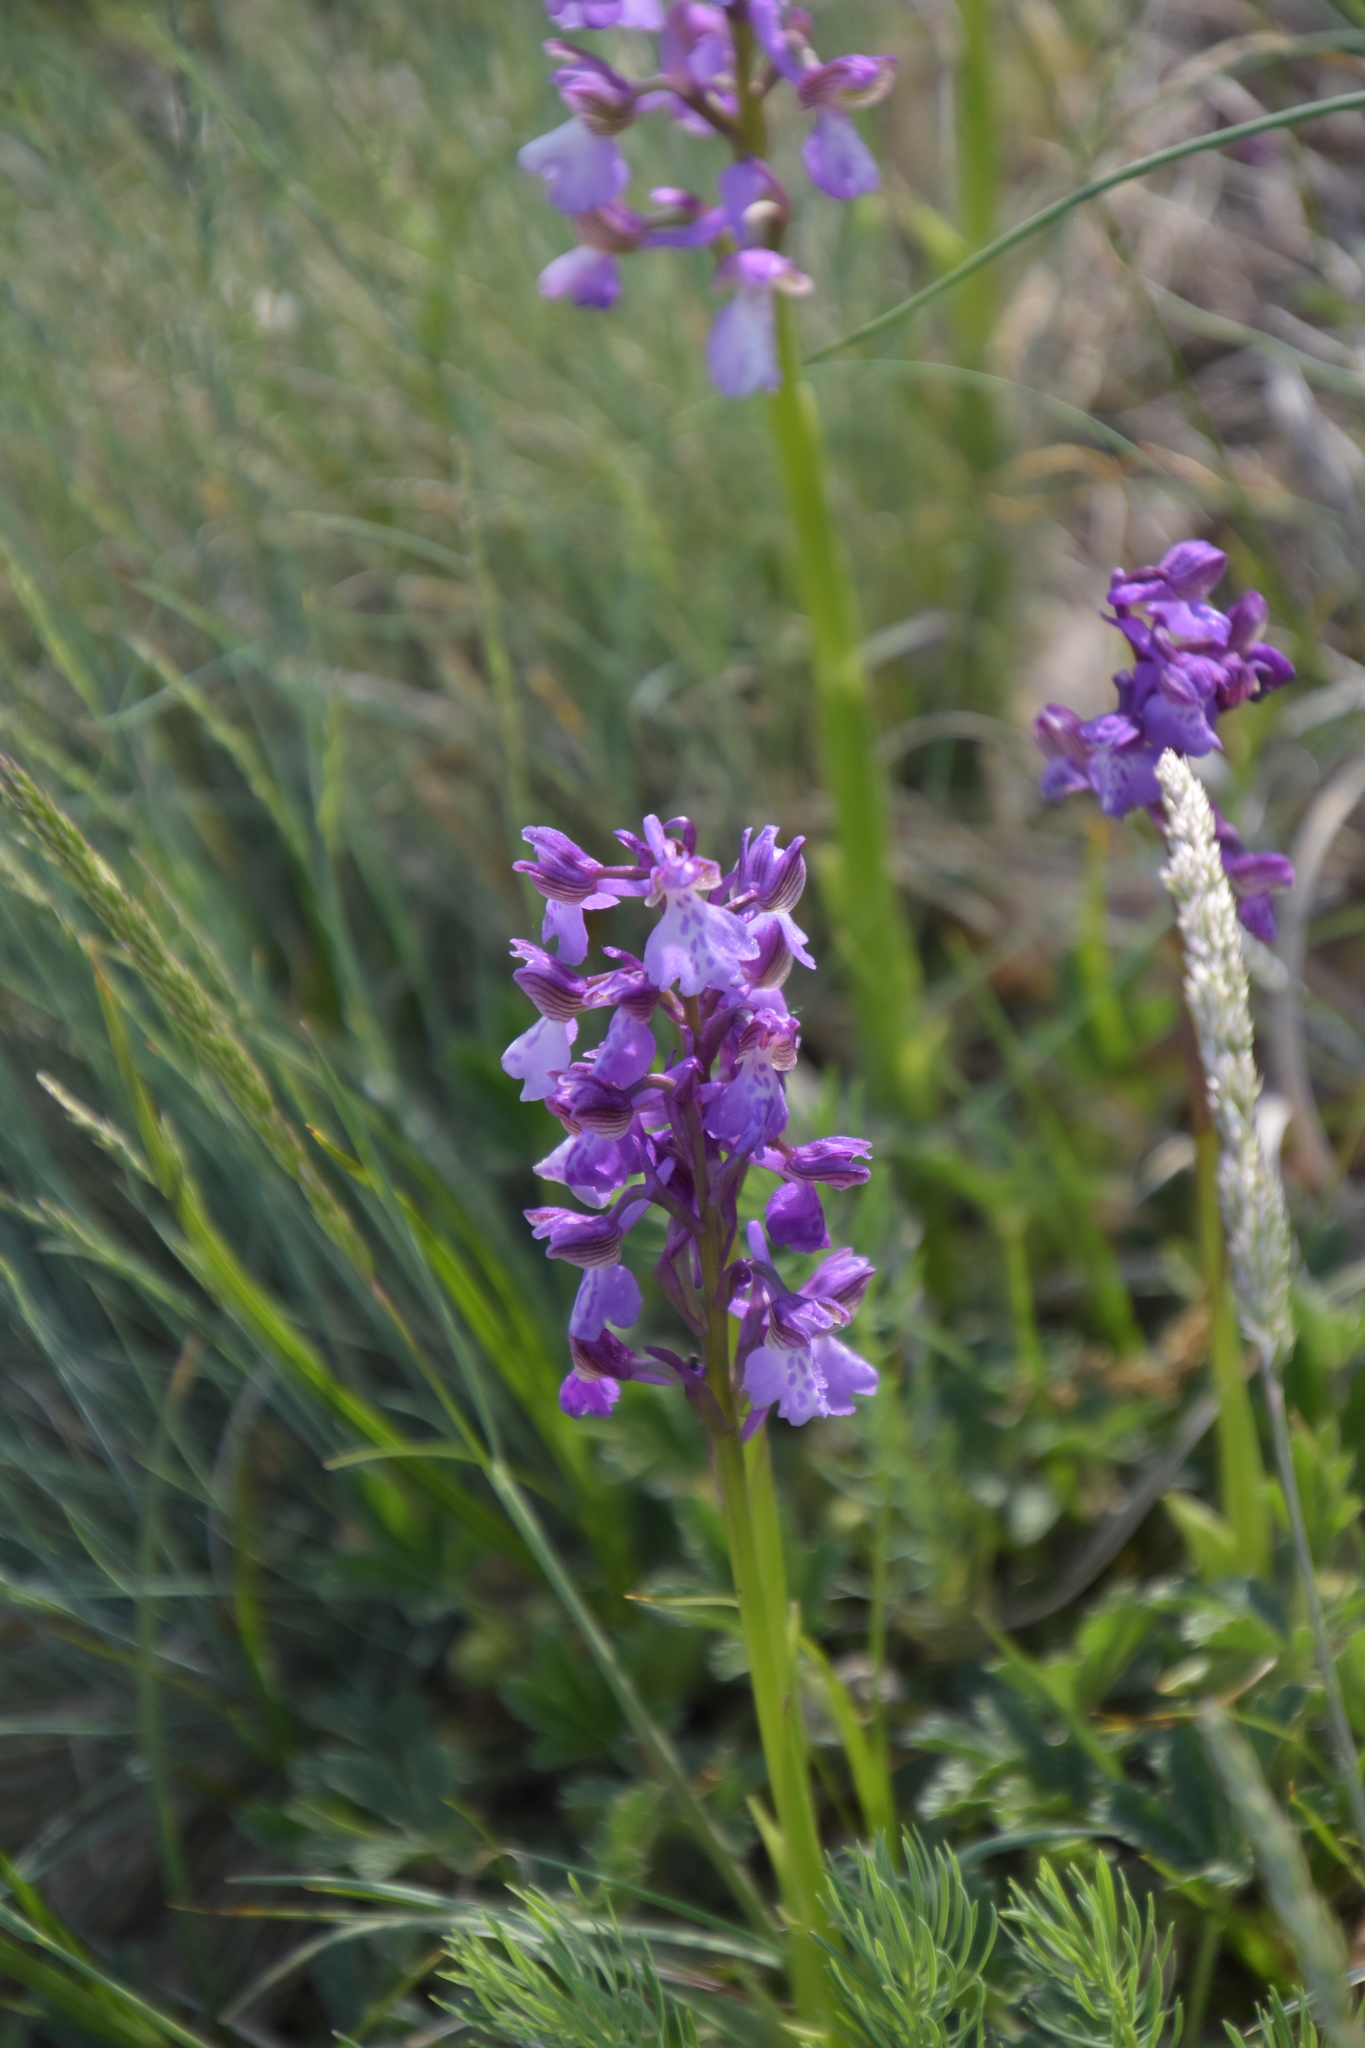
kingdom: Plantae
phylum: Tracheophyta
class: Liliopsida
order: Asparagales
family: Orchidaceae
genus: Anacamptis
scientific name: Anacamptis morio
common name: Green-winged orchid
